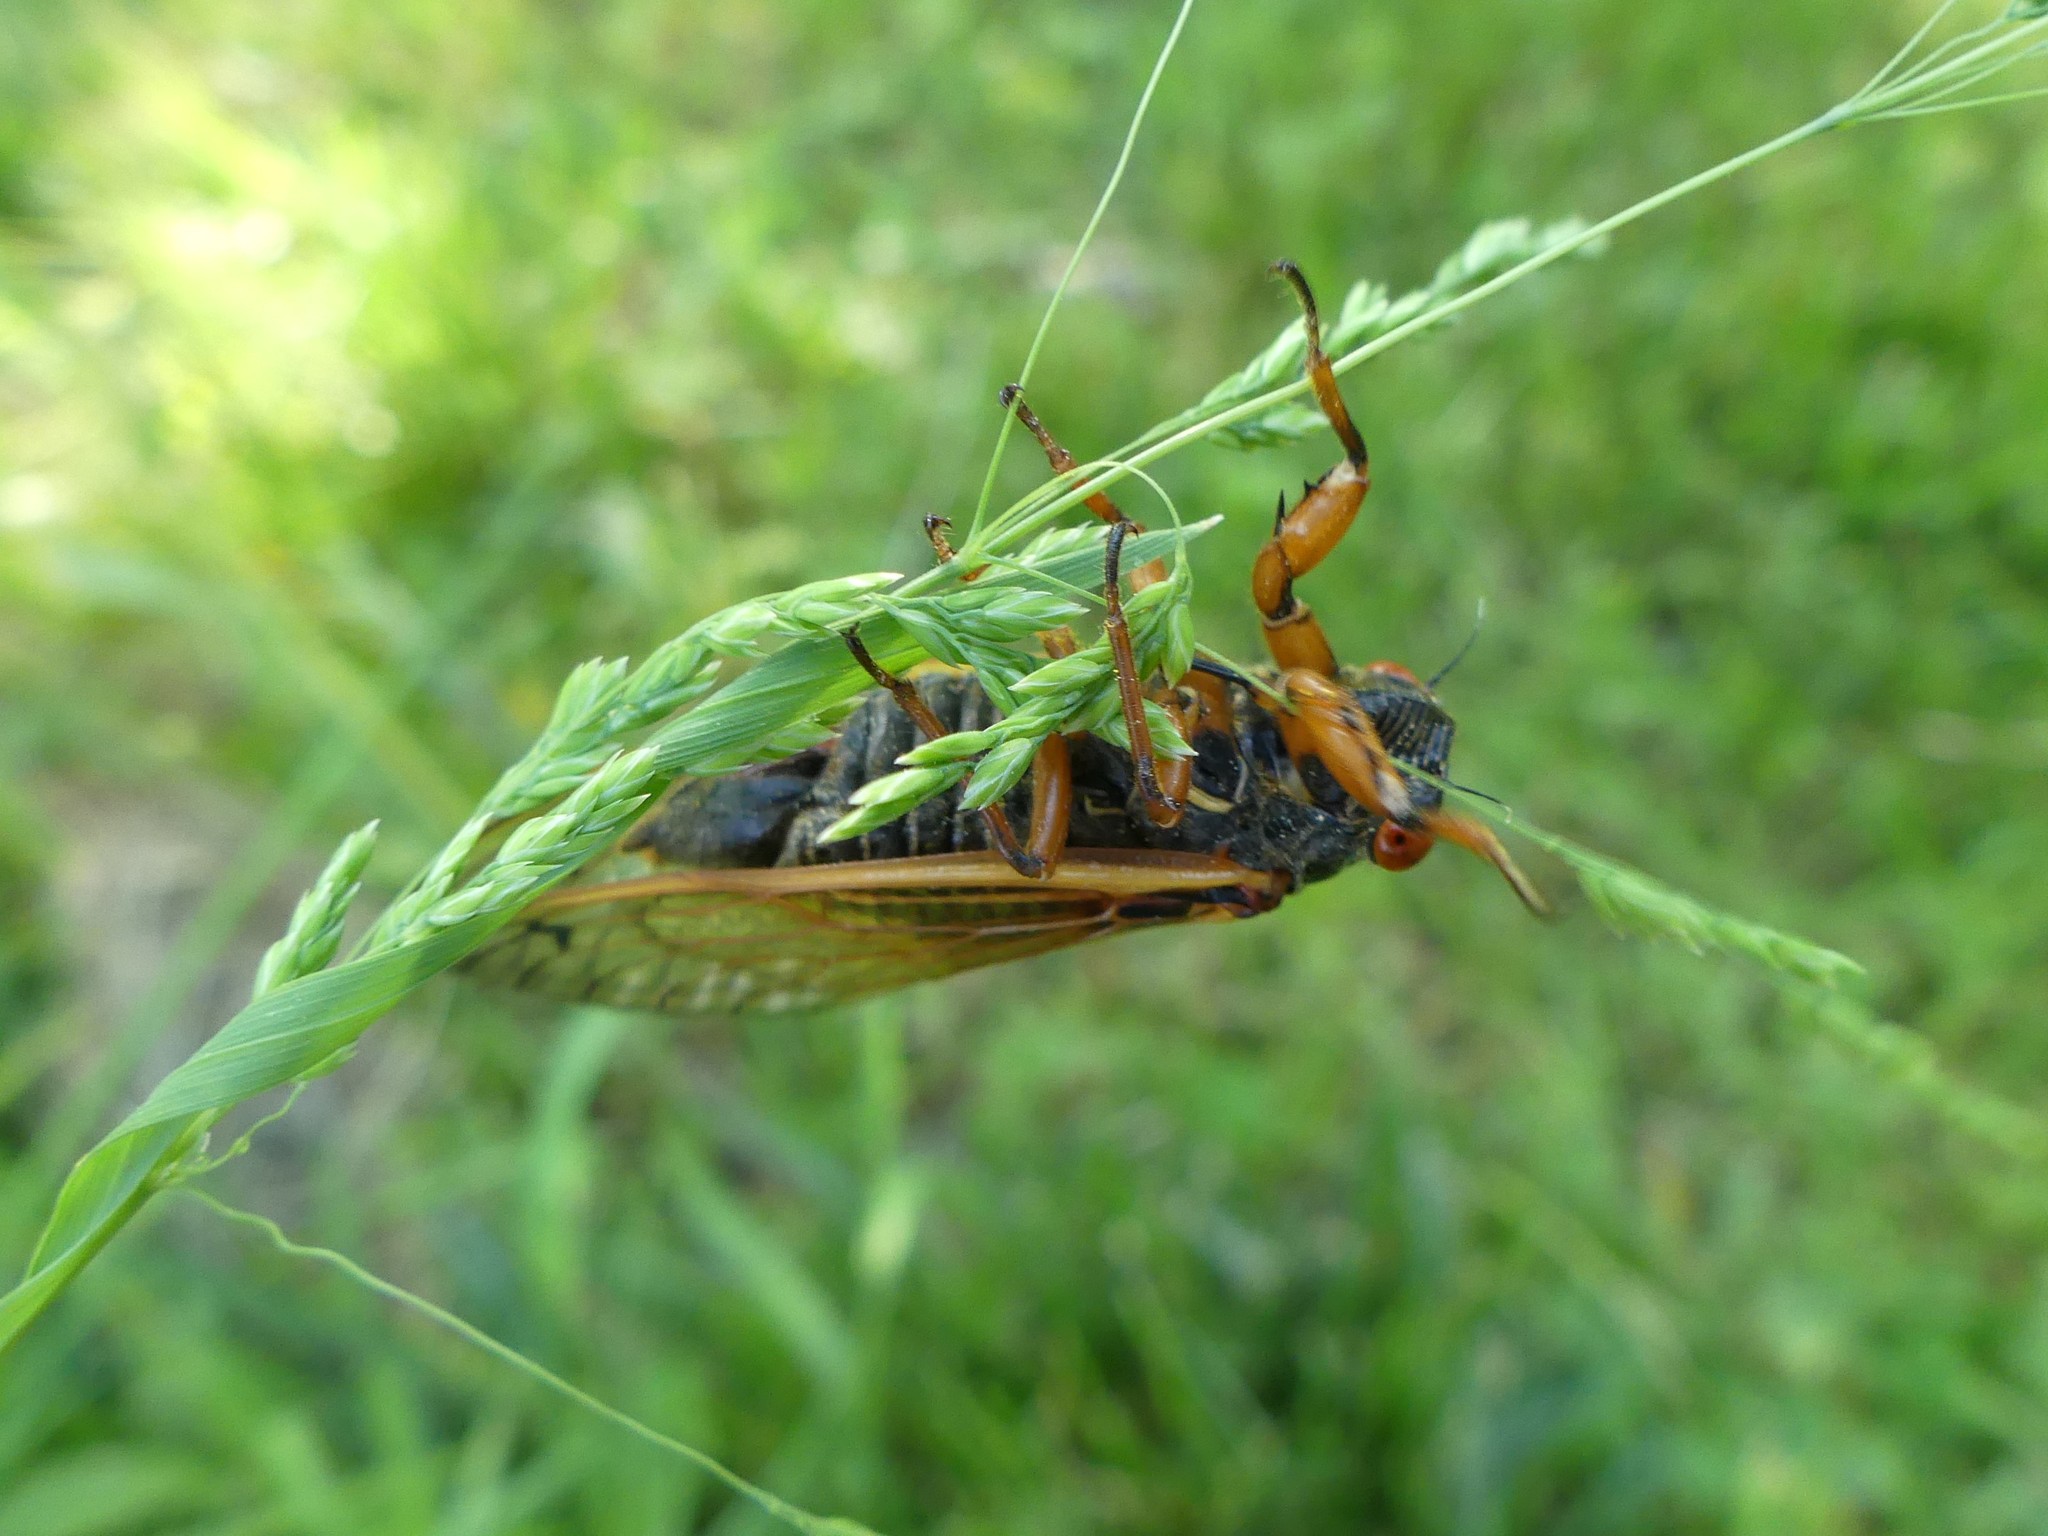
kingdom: Animalia
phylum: Arthropoda
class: Insecta
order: Hemiptera
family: Cicadidae
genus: Magicicada
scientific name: Magicicada cassini
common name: Cassin's 17-year cicada
